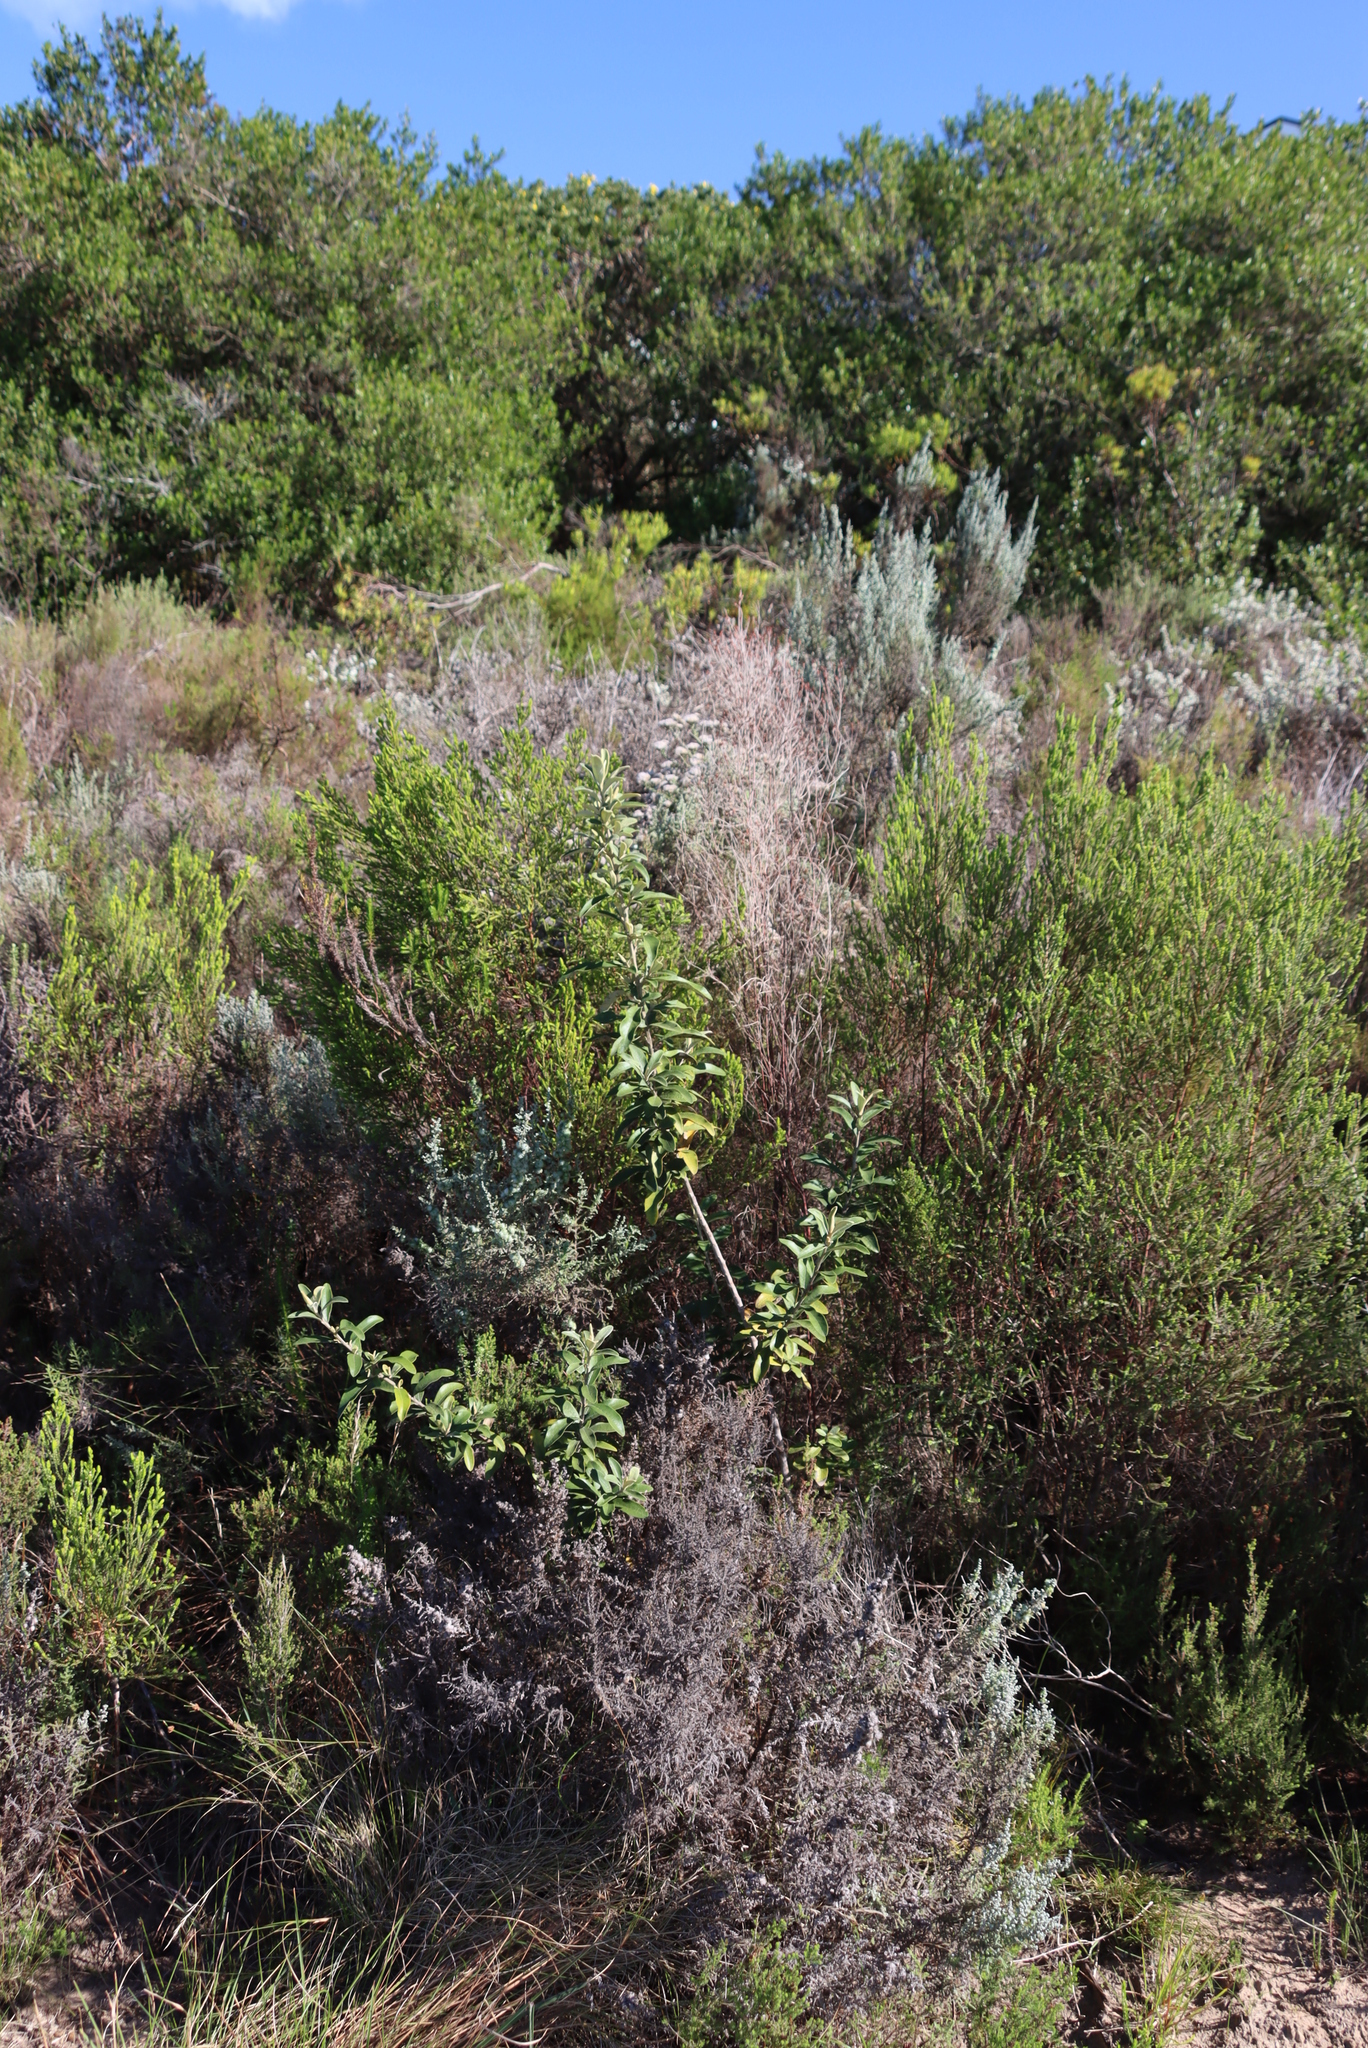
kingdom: Plantae
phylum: Tracheophyta
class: Magnoliopsida
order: Asterales
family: Asteraceae
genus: Tarchonanthus
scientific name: Tarchonanthus littoralis
